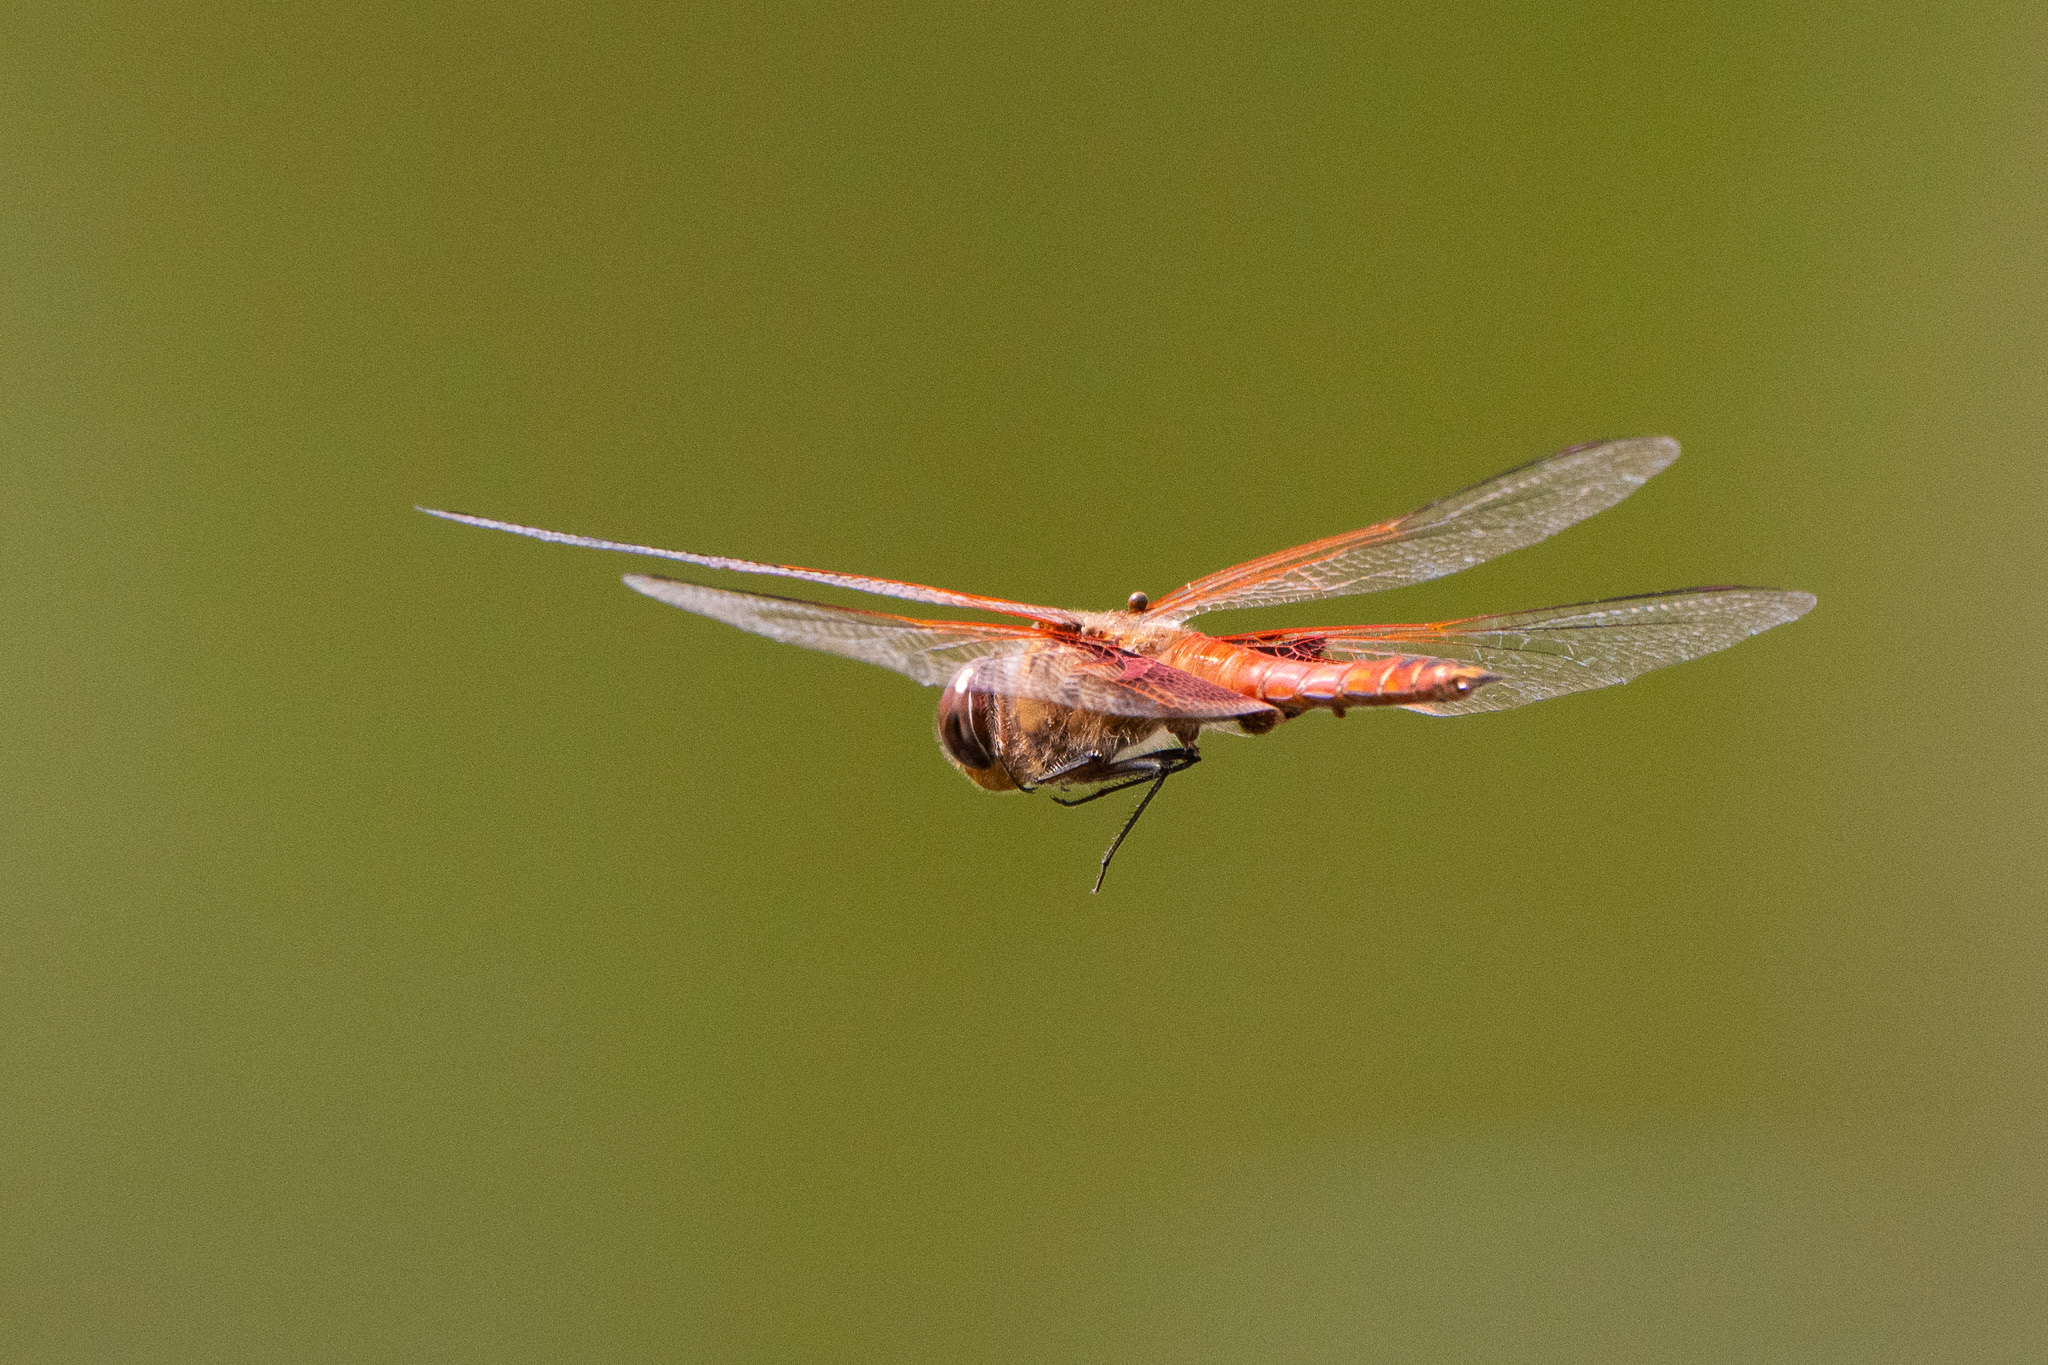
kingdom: Animalia
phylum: Arthropoda
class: Insecta
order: Odonata
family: Libellulidae
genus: Tramea
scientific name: Tramea onusta
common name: Red saddlebags
